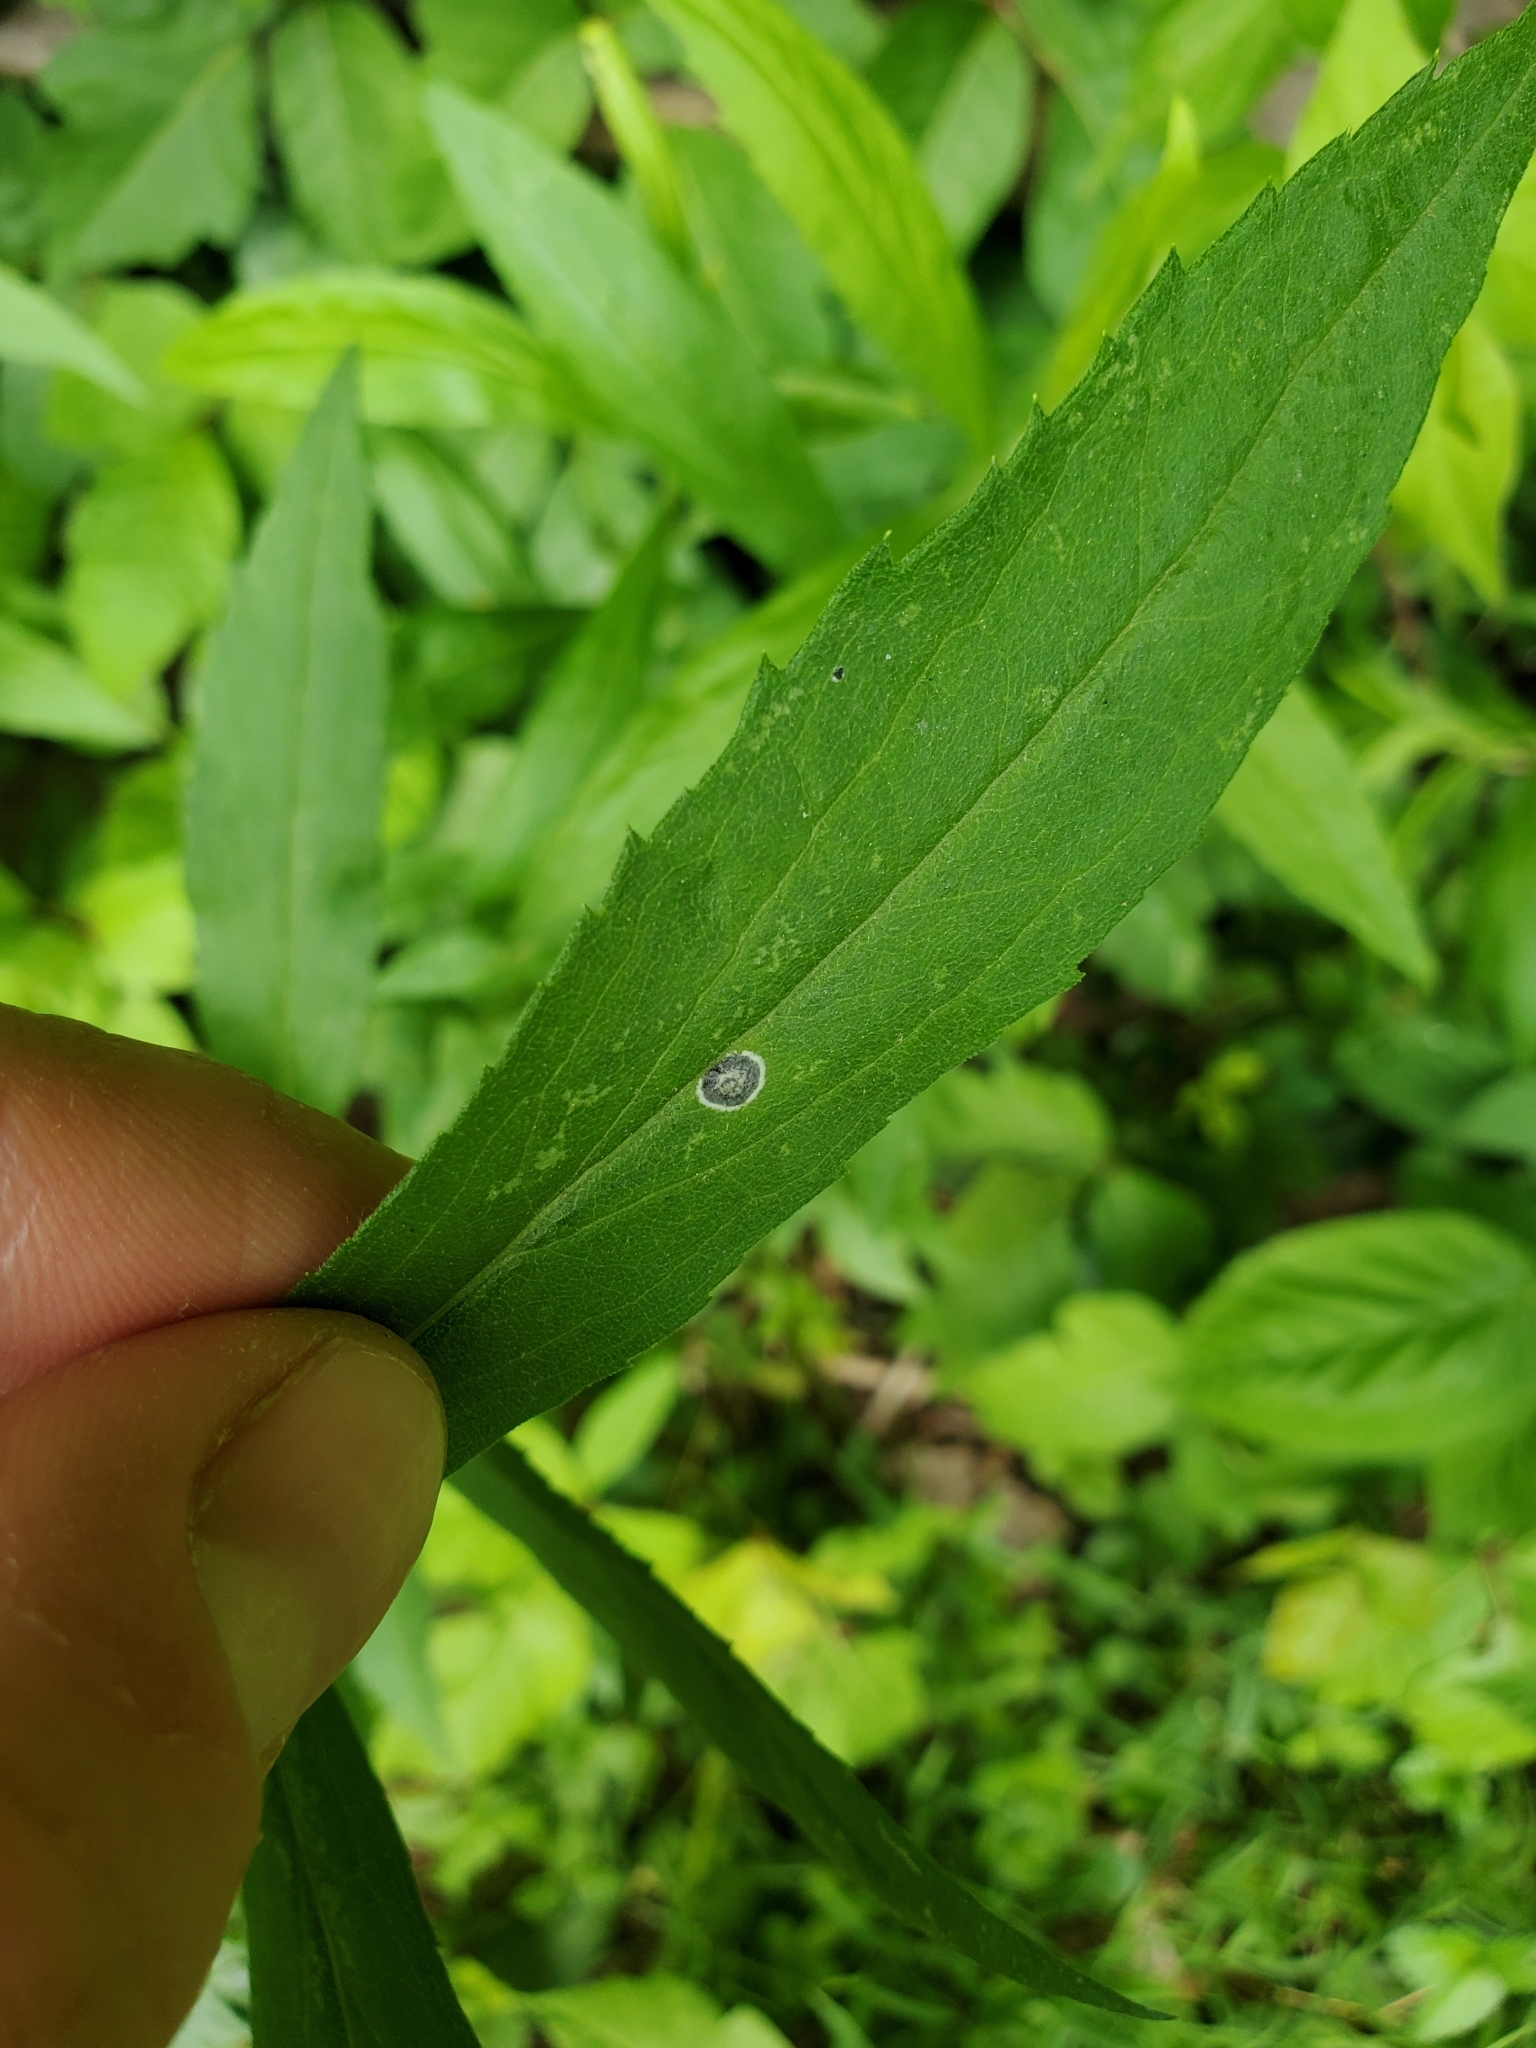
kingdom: Animalia
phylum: Arthropoda
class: Insecta
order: Diptera
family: Cecidomyiidae
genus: Asteromyia
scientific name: Asteromyia carbonifera
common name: Carbonifera goldenrod gall midge
